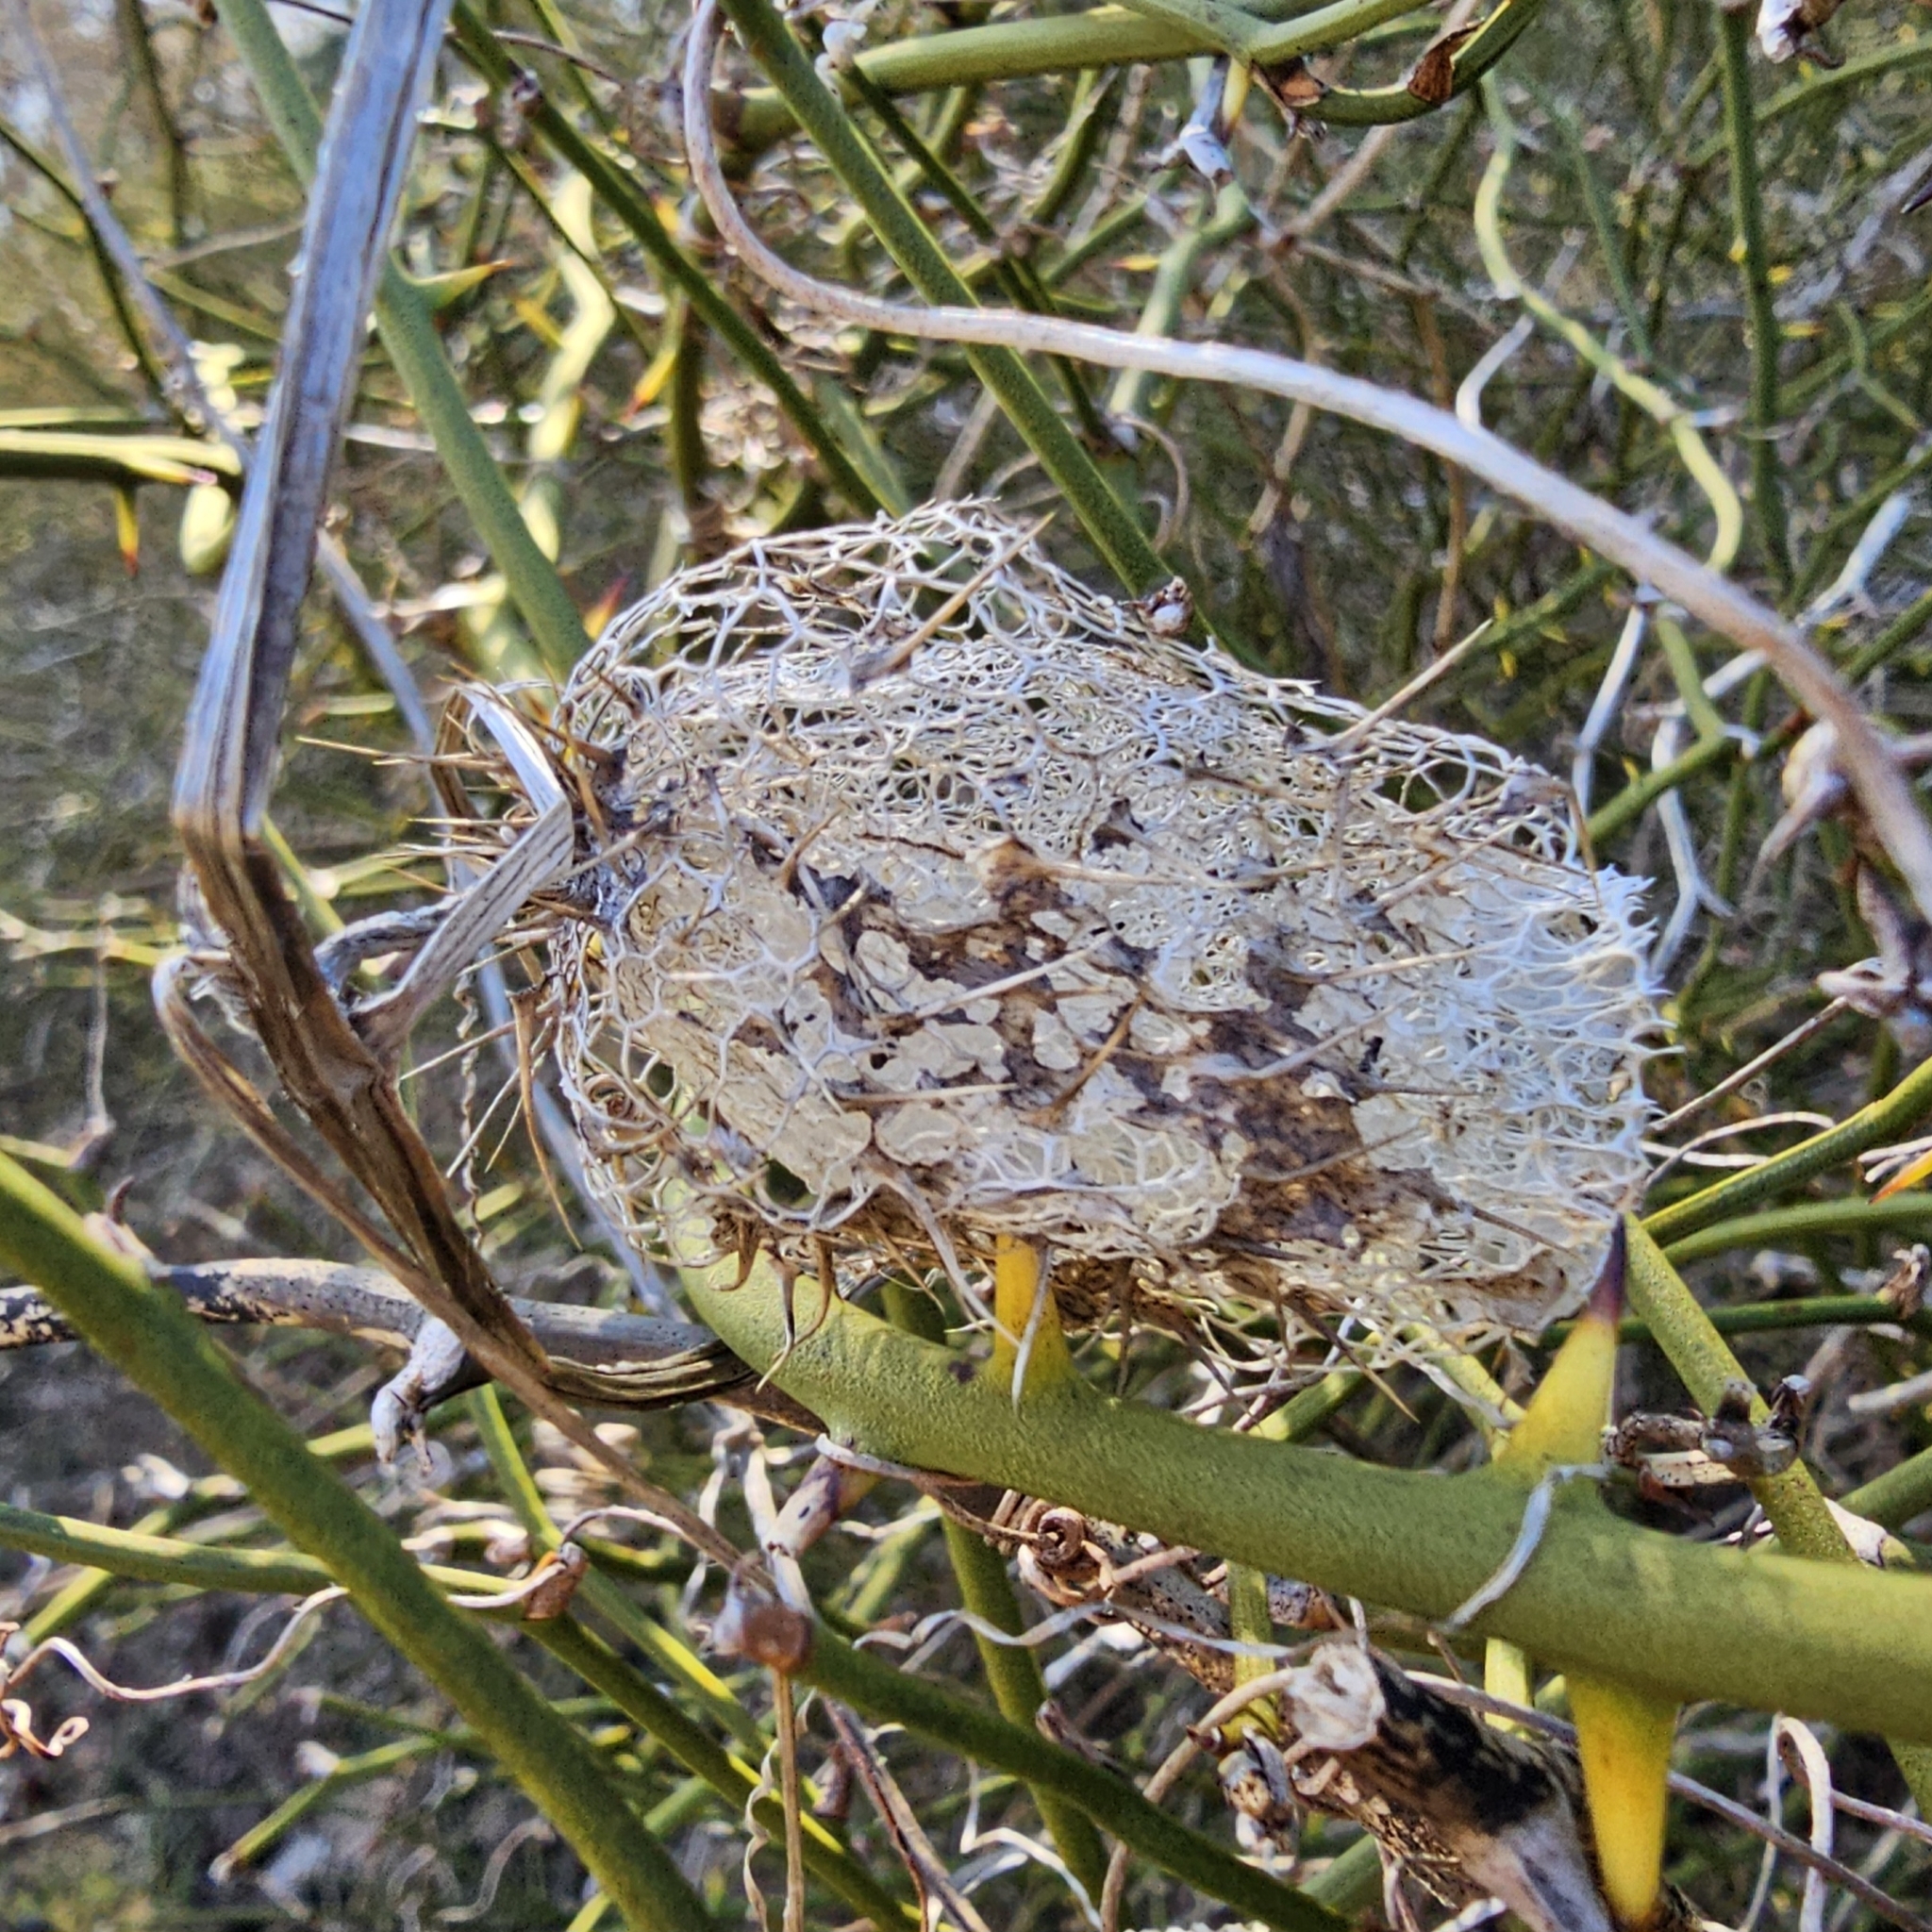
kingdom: Plantae
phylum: Tracheophyta
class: Magnoliopsida
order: Cucurbitales
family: Cucurbitaceae
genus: Echinocystis
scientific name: Echinocystis lobata
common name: Wild cucumber
